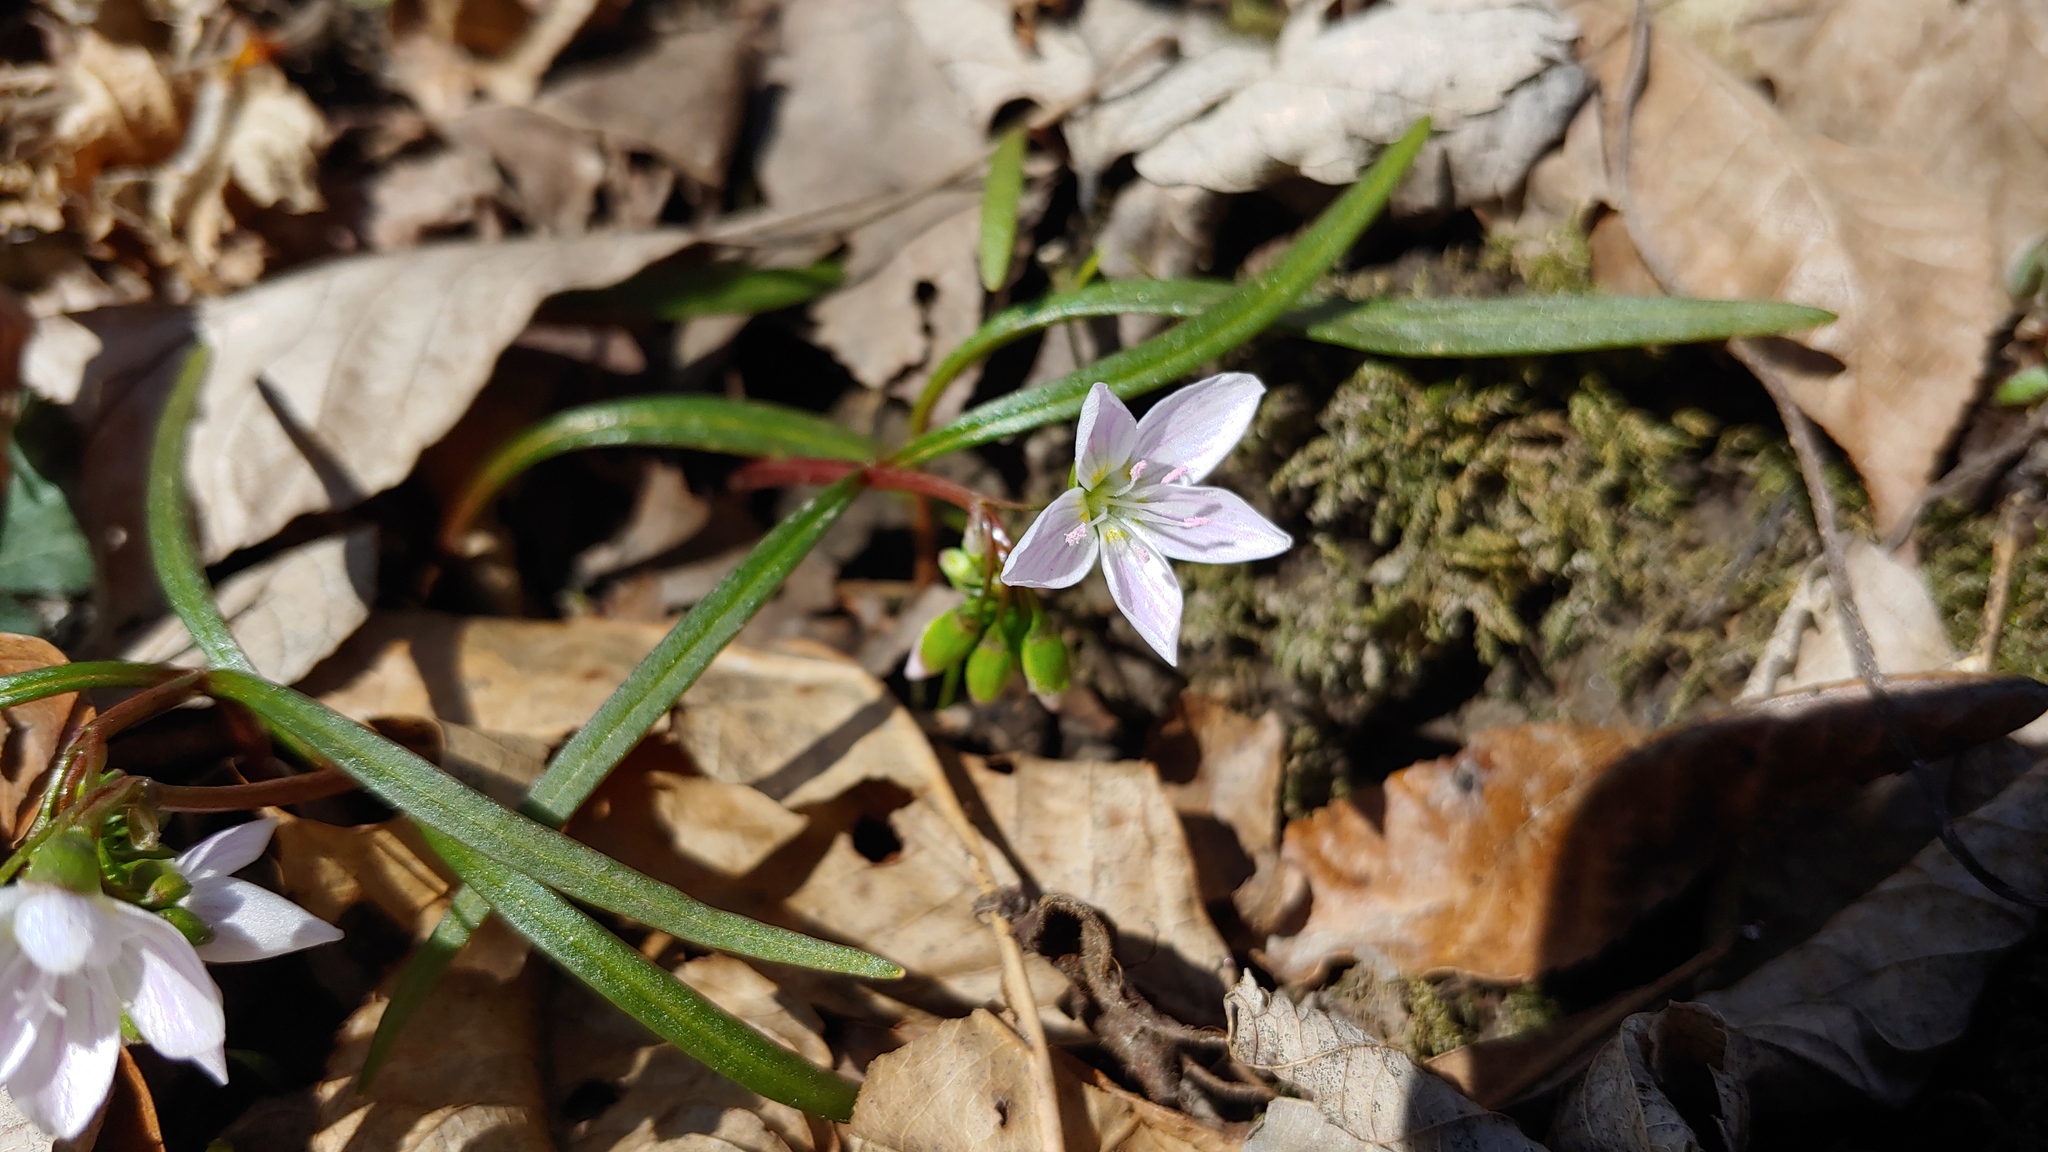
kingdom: Plantae
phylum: Tracheophyta
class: Magnoliopsida
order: Caryophyllales
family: Montiaceae
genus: Claytonia
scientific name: Claytonia virginica
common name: Virginia springbeauty
